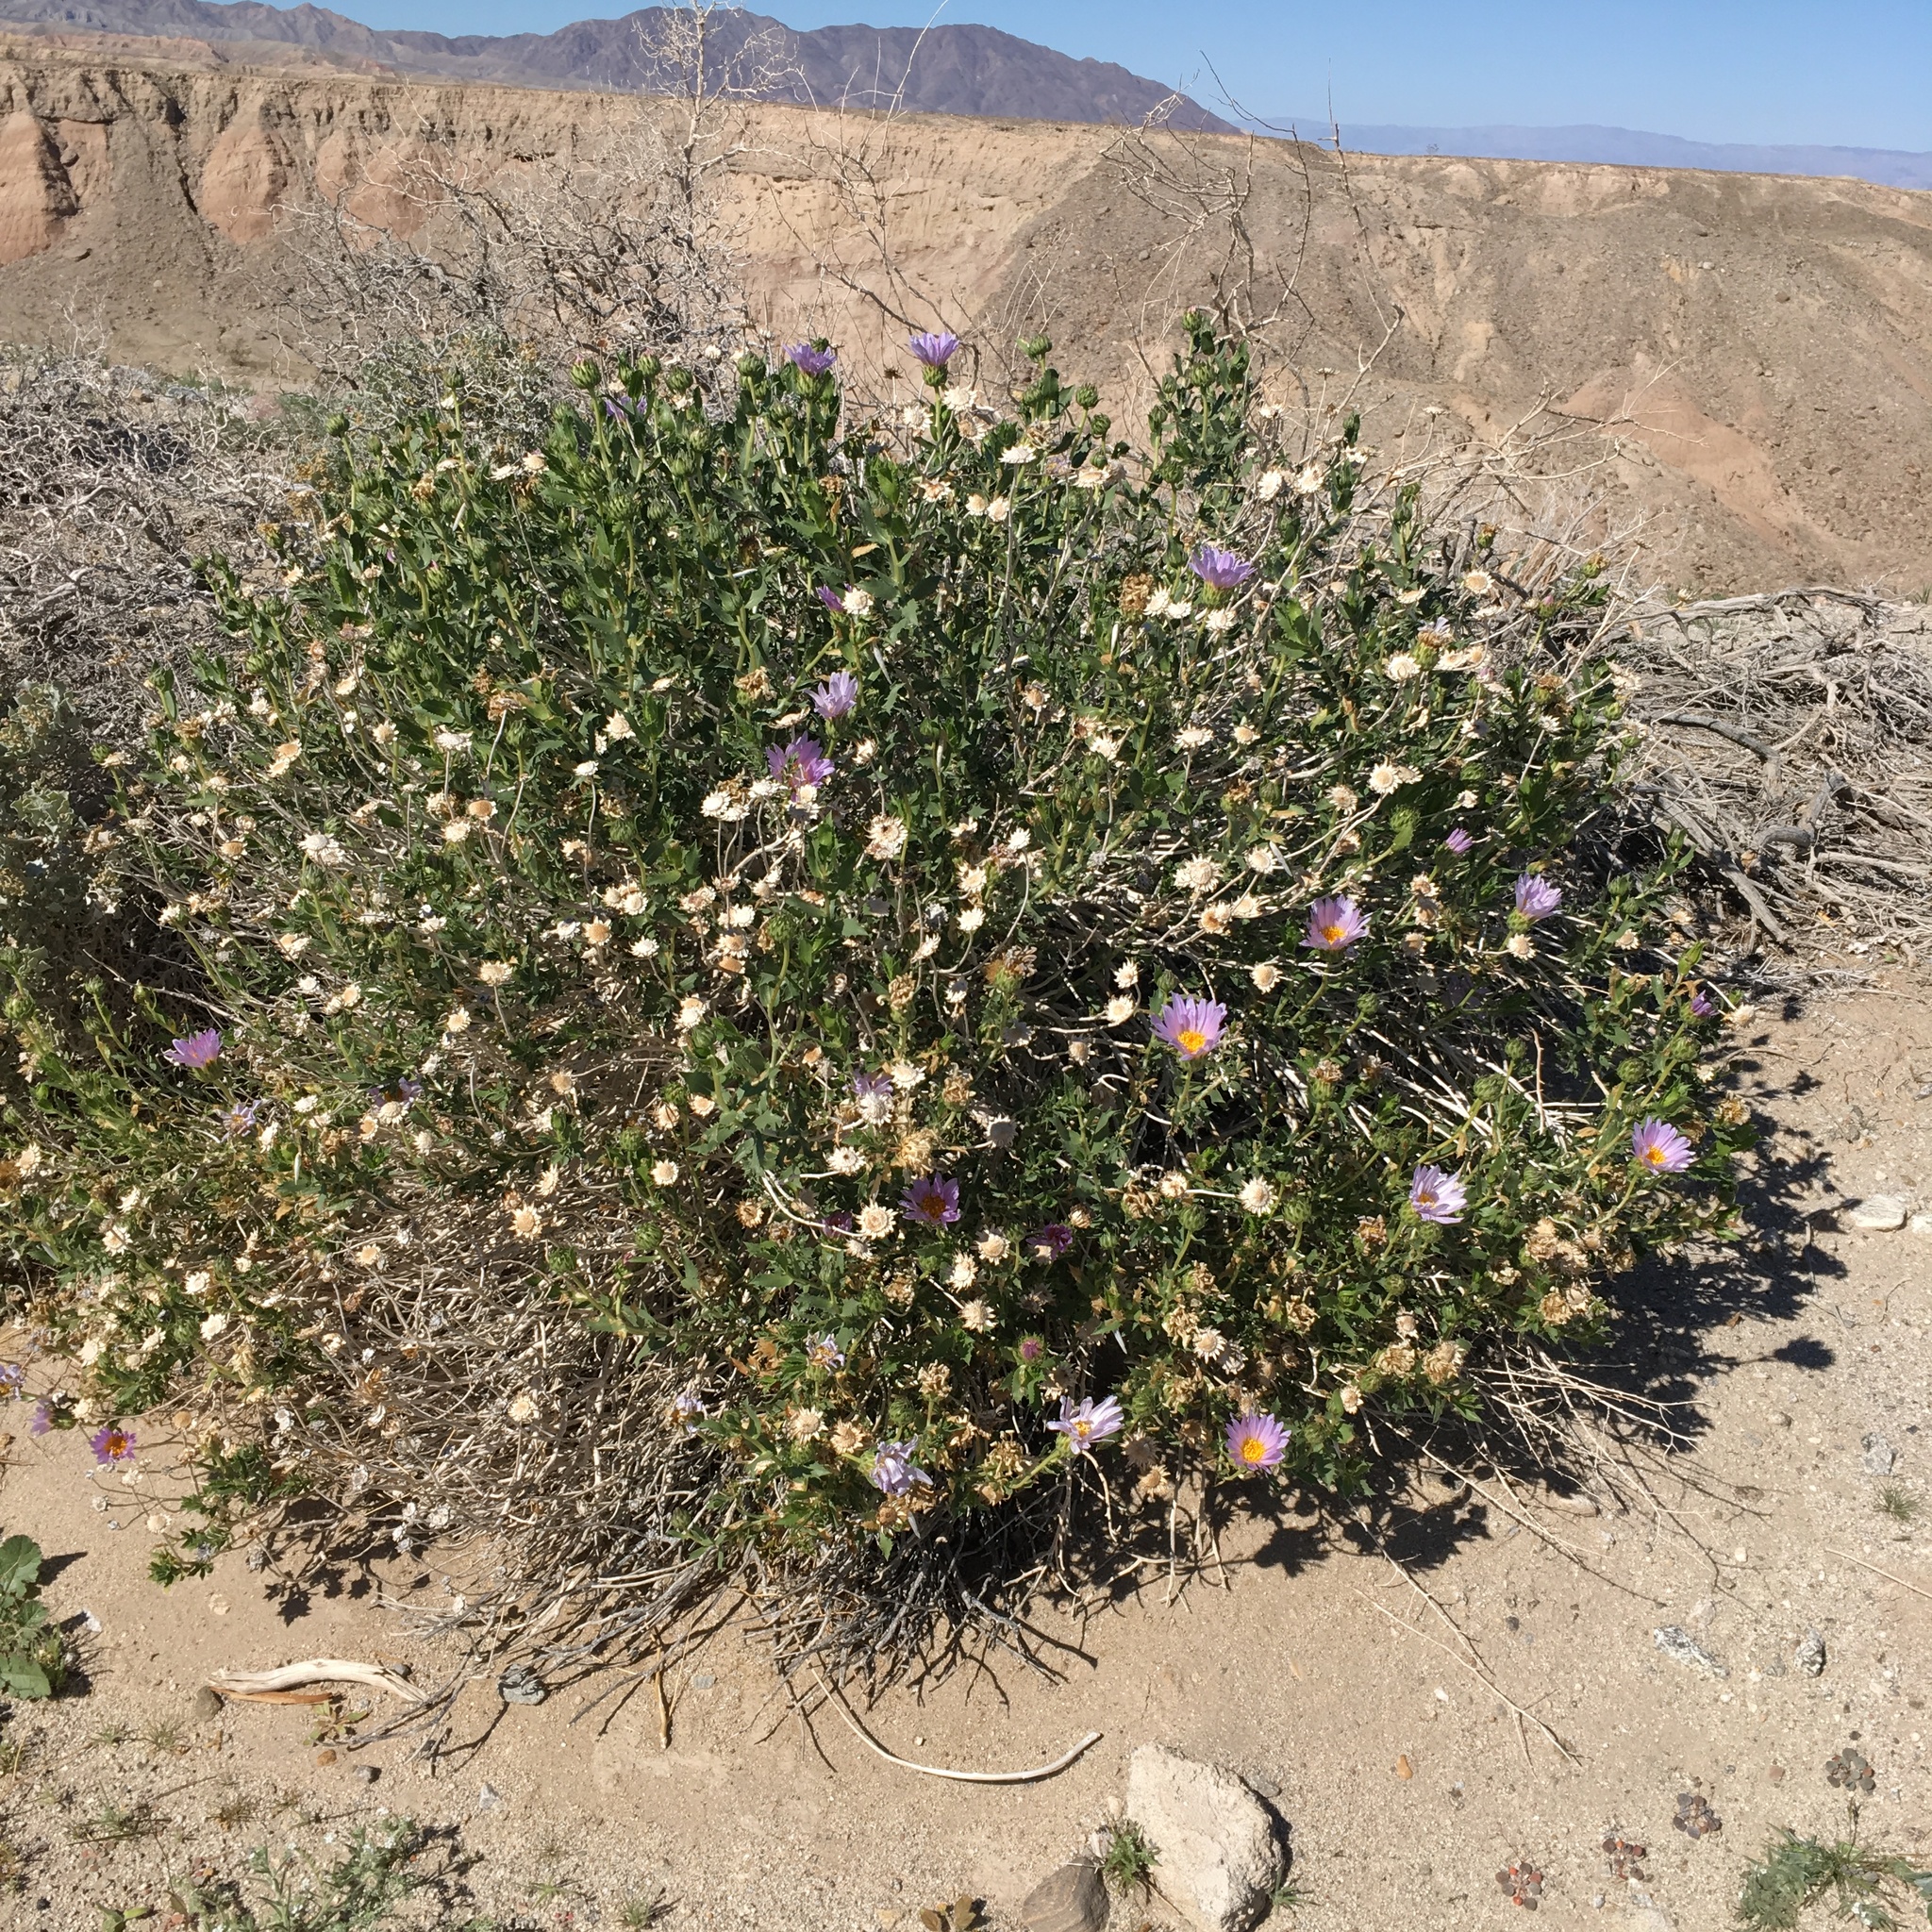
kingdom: Plantae
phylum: Tracheophyta
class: Magnoliopsida
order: Asterales
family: Asteraceae
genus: Xylorhiza
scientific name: Xylorhiza orcuttii
